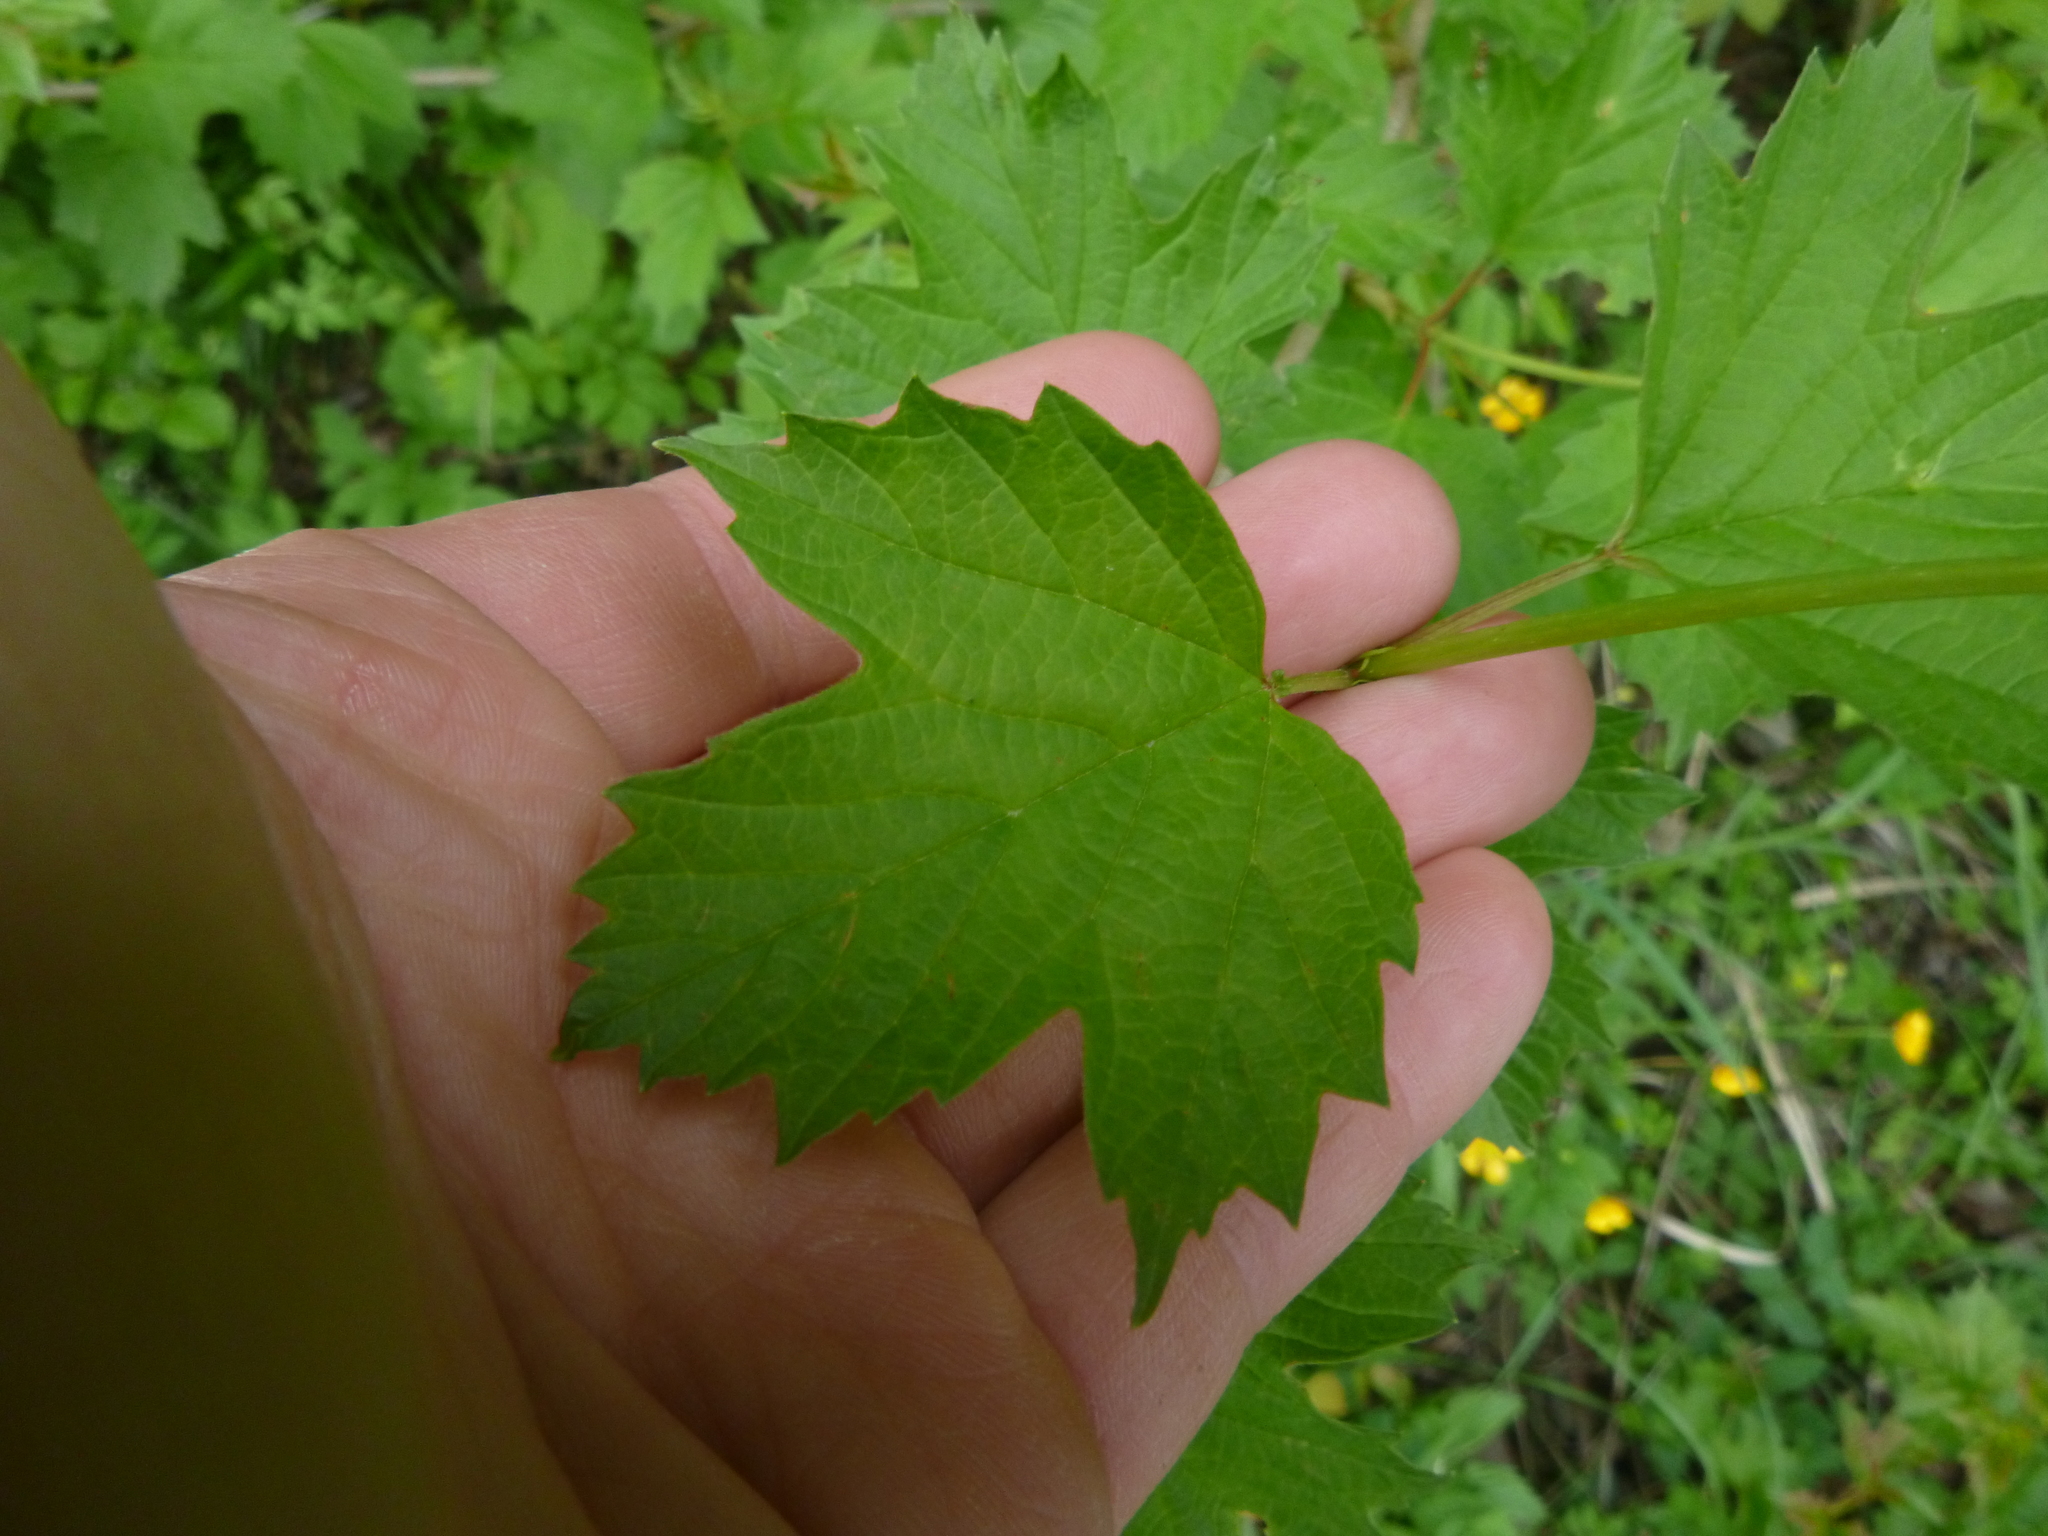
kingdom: Plantae
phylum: Tracheophyta
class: Magnoliopsida
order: Dipsacales
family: Viburnaceae
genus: Viburnum
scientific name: Viburnum opulus
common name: Guelder-rose
